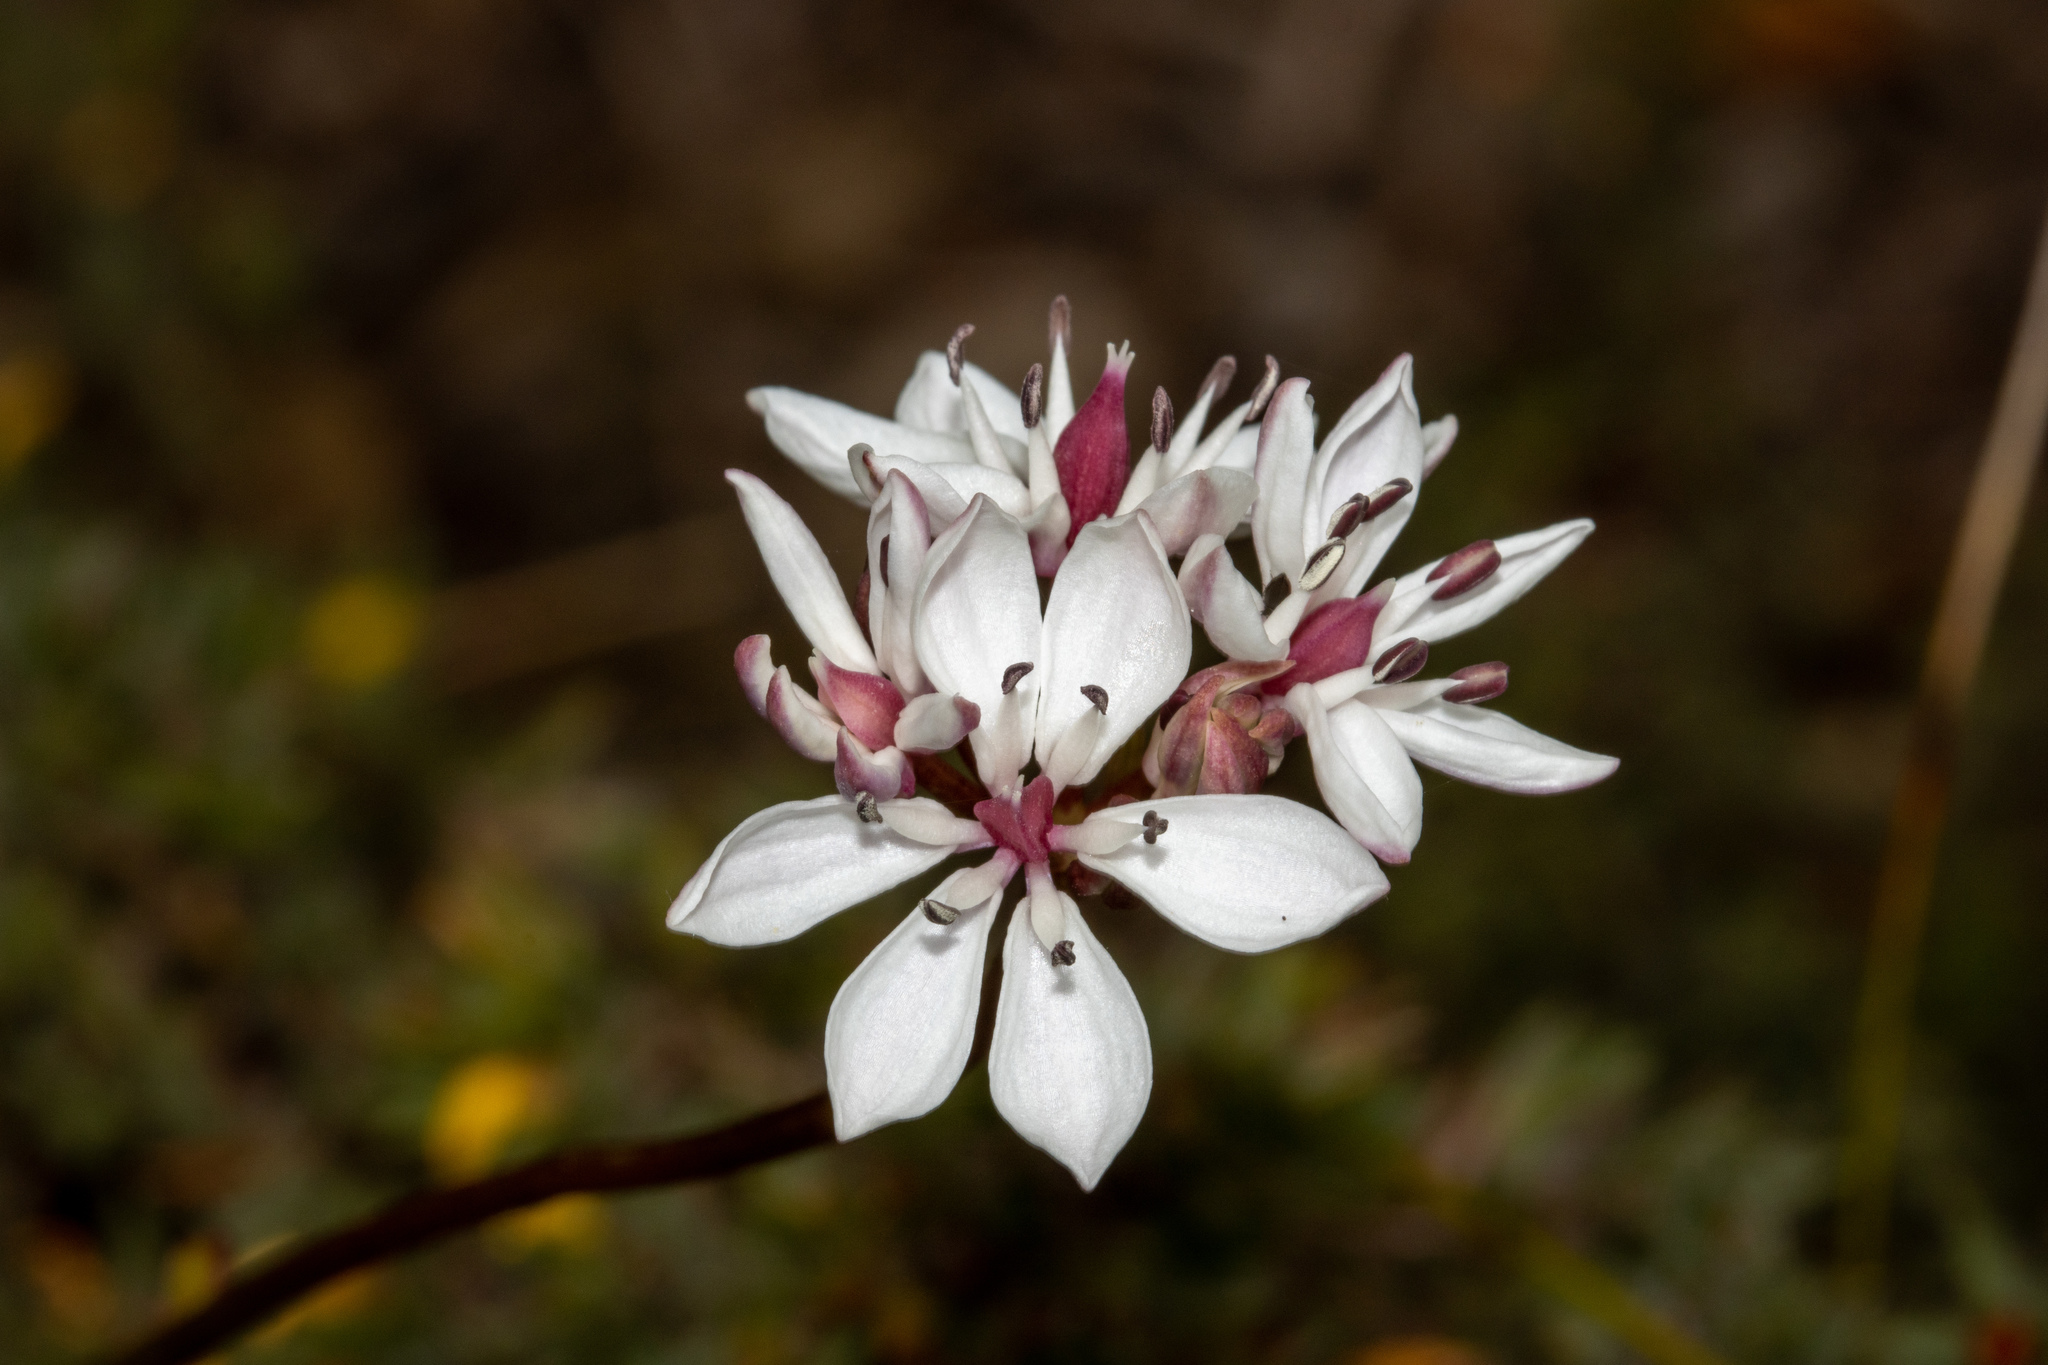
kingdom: Plantae
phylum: Tracheophyta
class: Liliopsida
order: Liliales
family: Colchicaceae
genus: Burchardia
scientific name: Burchardia umbellata
